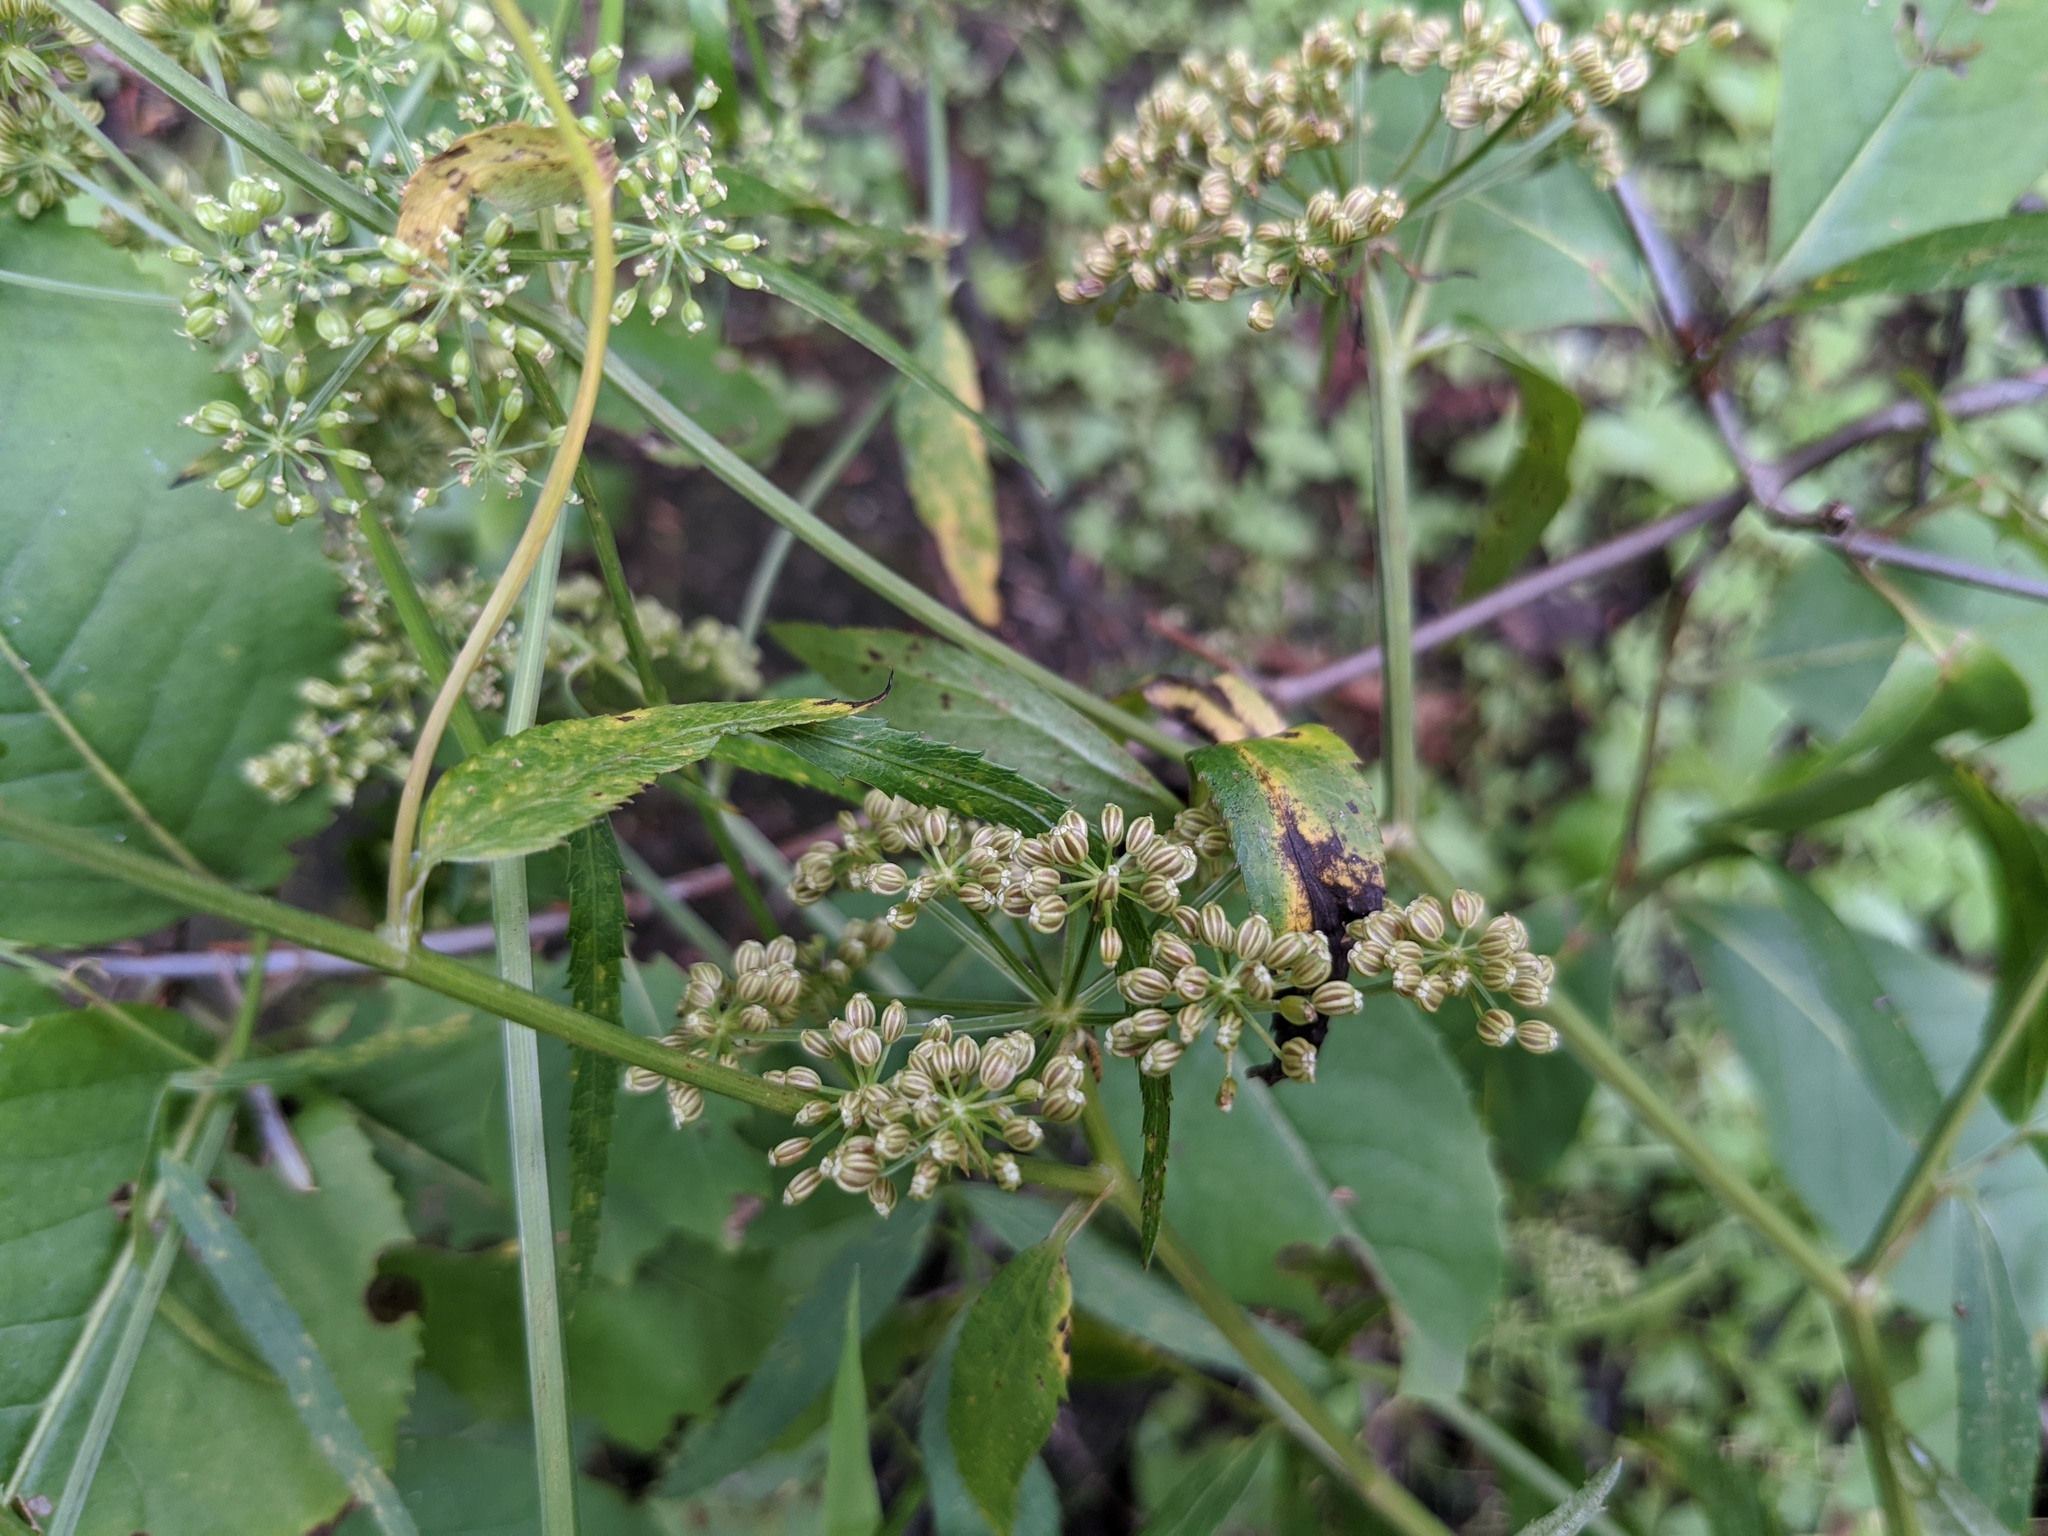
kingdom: Plantae
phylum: Tracheophyta
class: Magnoliopsida
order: Apiales
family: Apiaceae
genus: Sium
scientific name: Sium suave
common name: Hemlock water-parsnip
